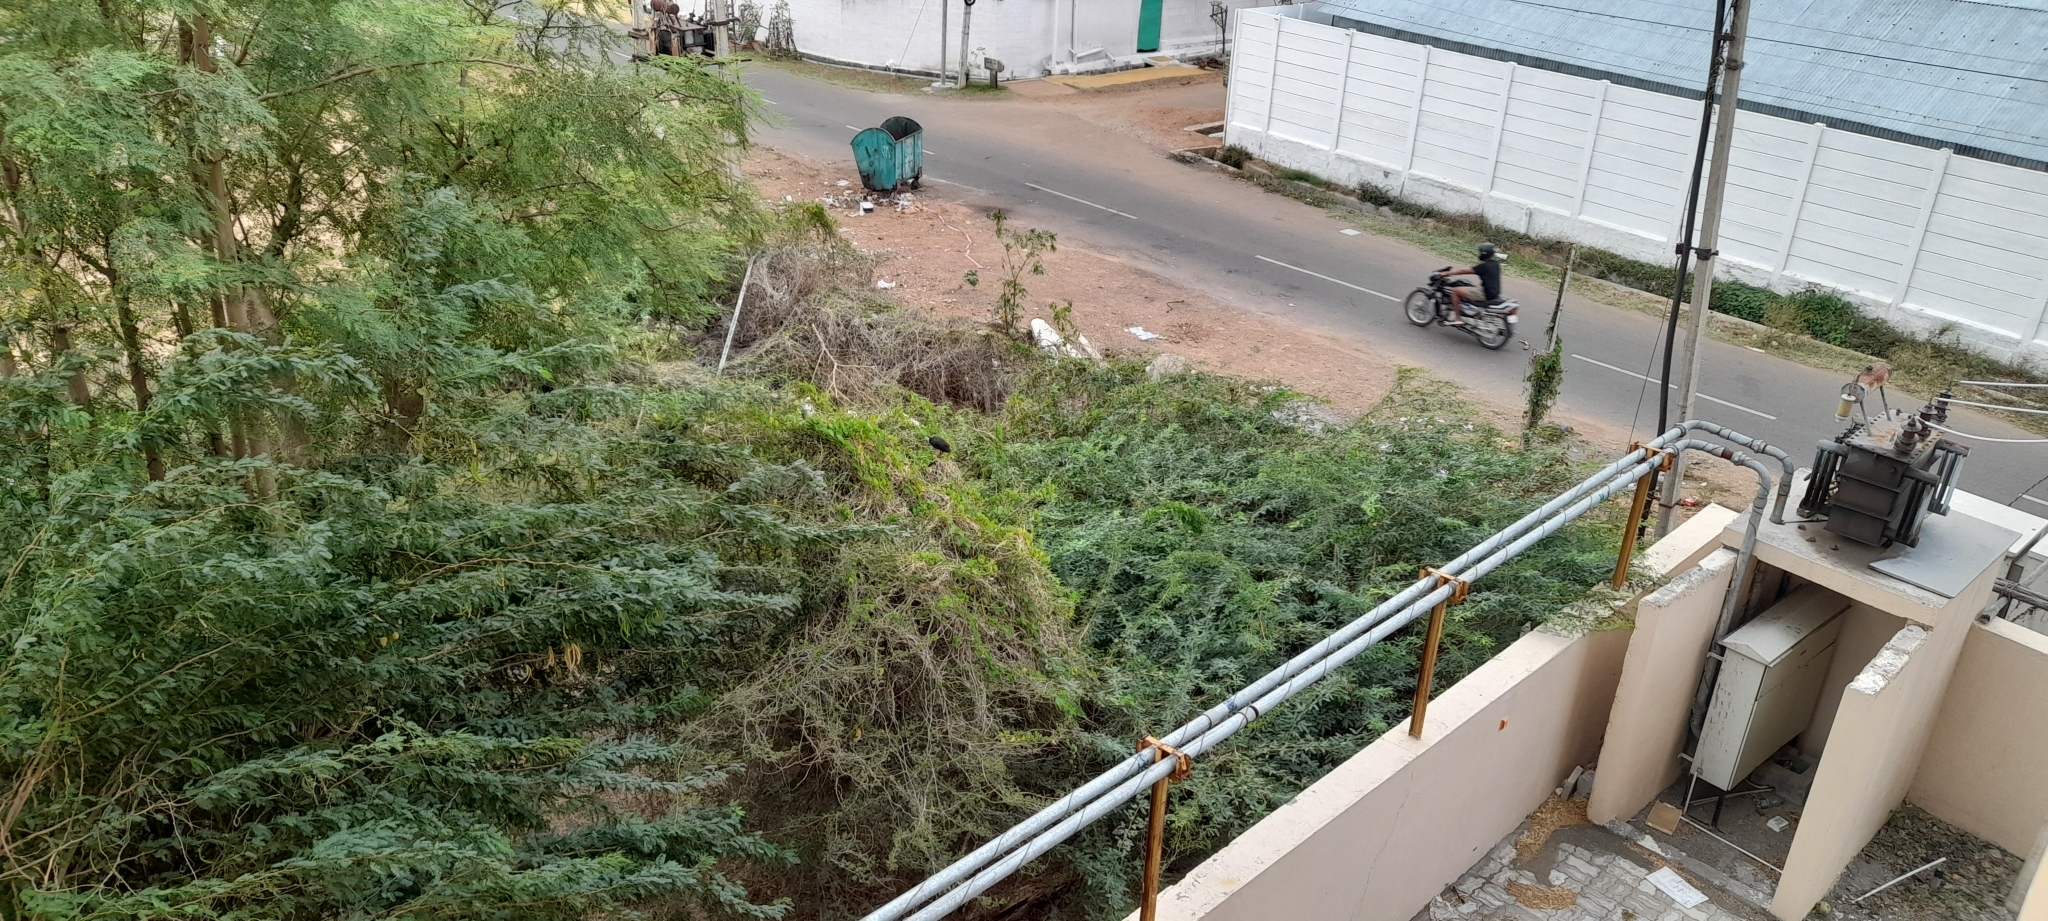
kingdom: Animalia
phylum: Chordata
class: Aves
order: Gruiformes
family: Rallidae
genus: Amaurornis
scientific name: Amaurornis phoenicurus
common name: White-breasted waterhen
